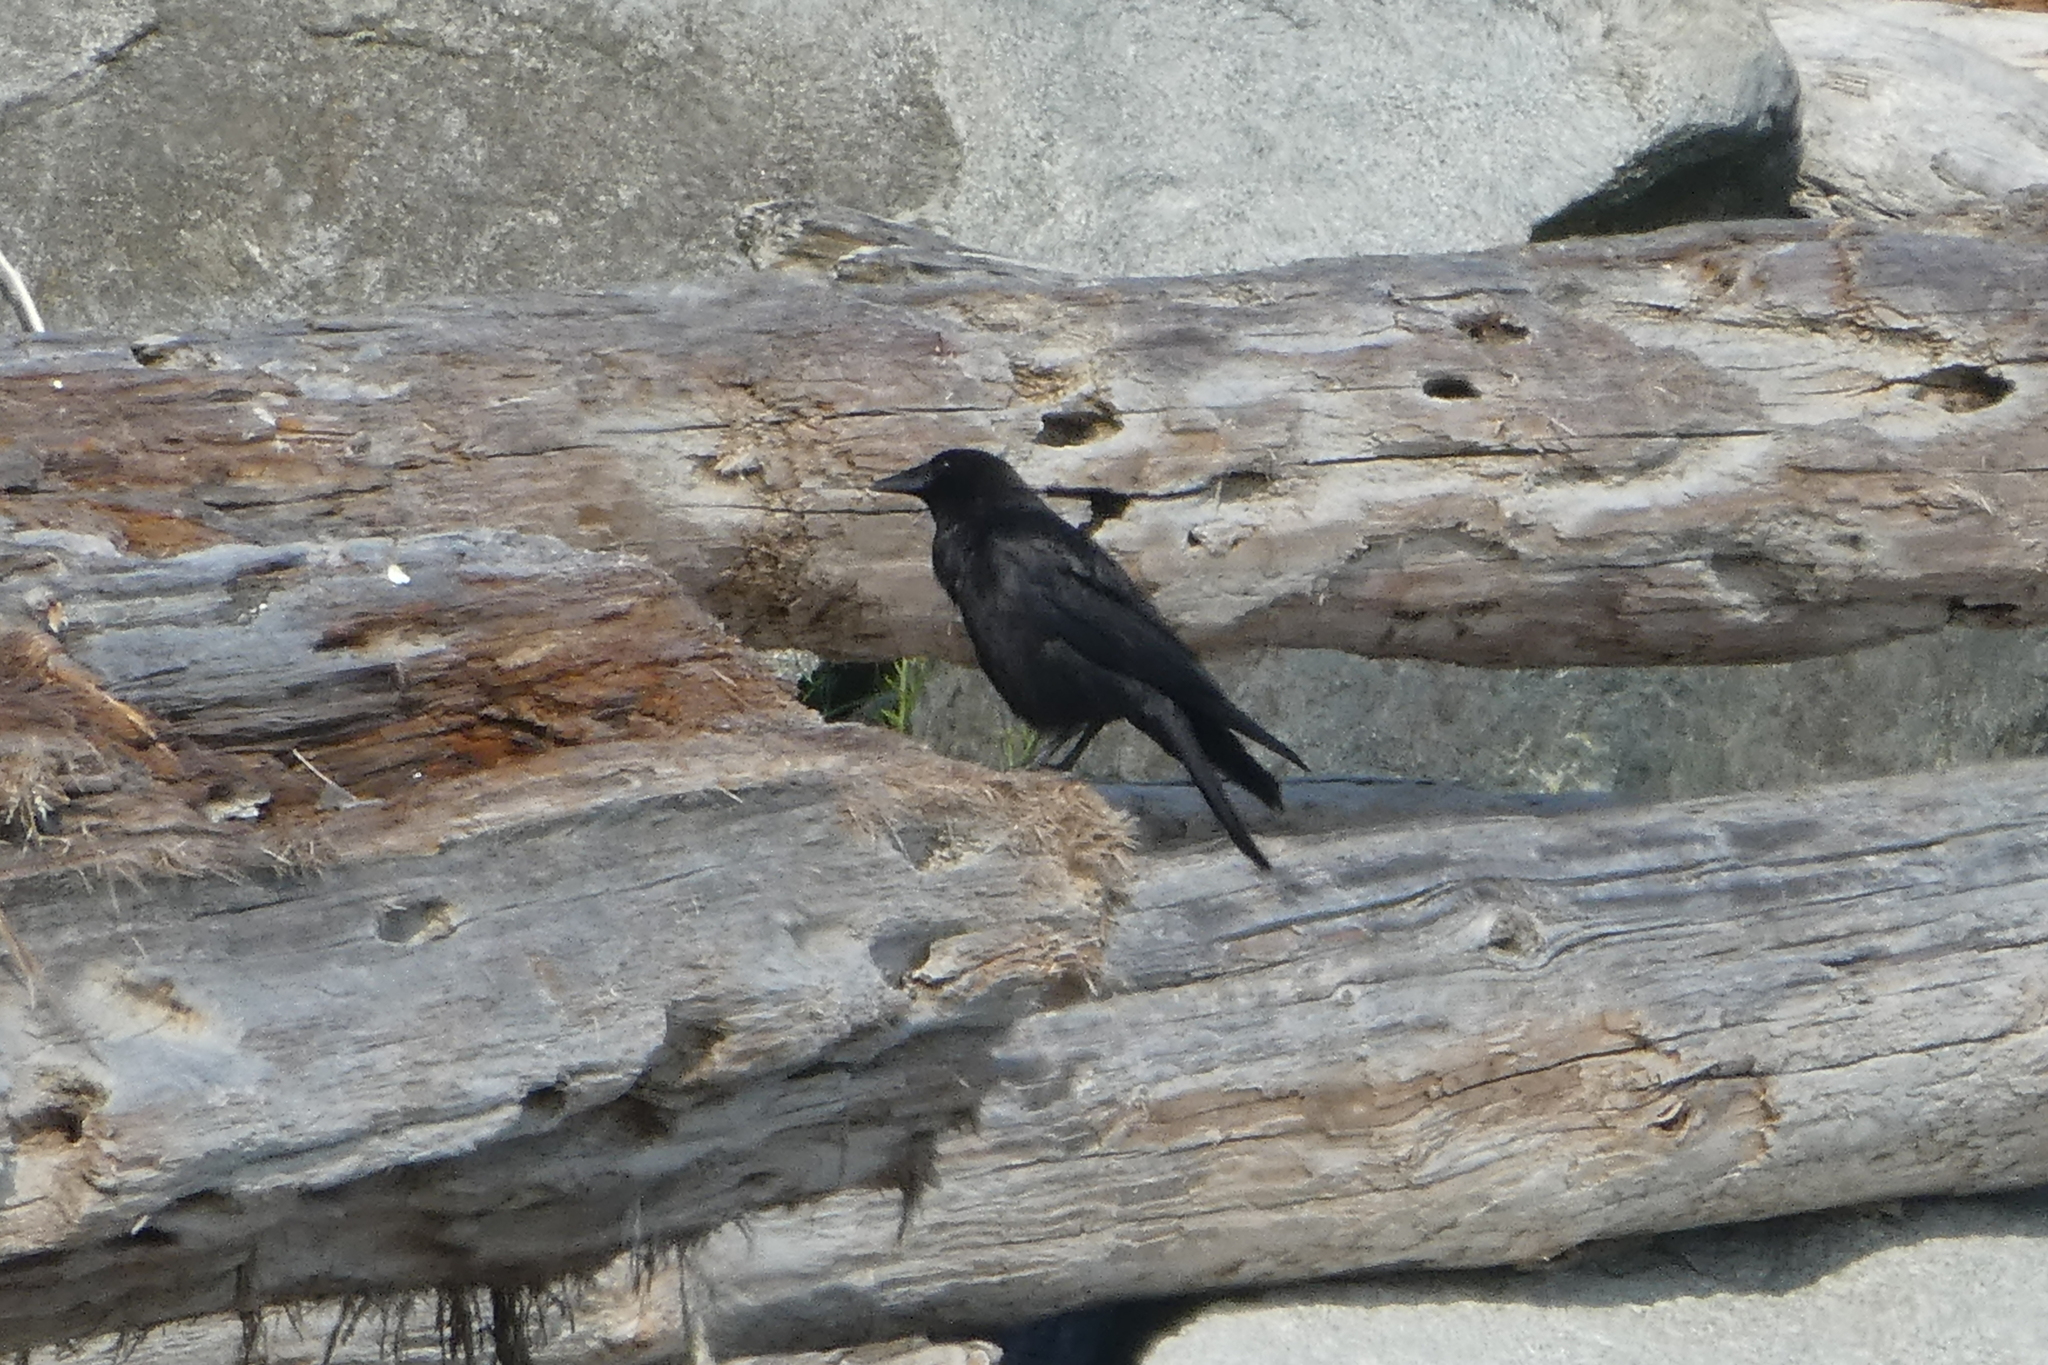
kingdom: Animalia
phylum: Chordata
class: Aves
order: Passeriformes
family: Corvidae
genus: Corvus
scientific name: Corvus brachyrhynchos
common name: American crow
